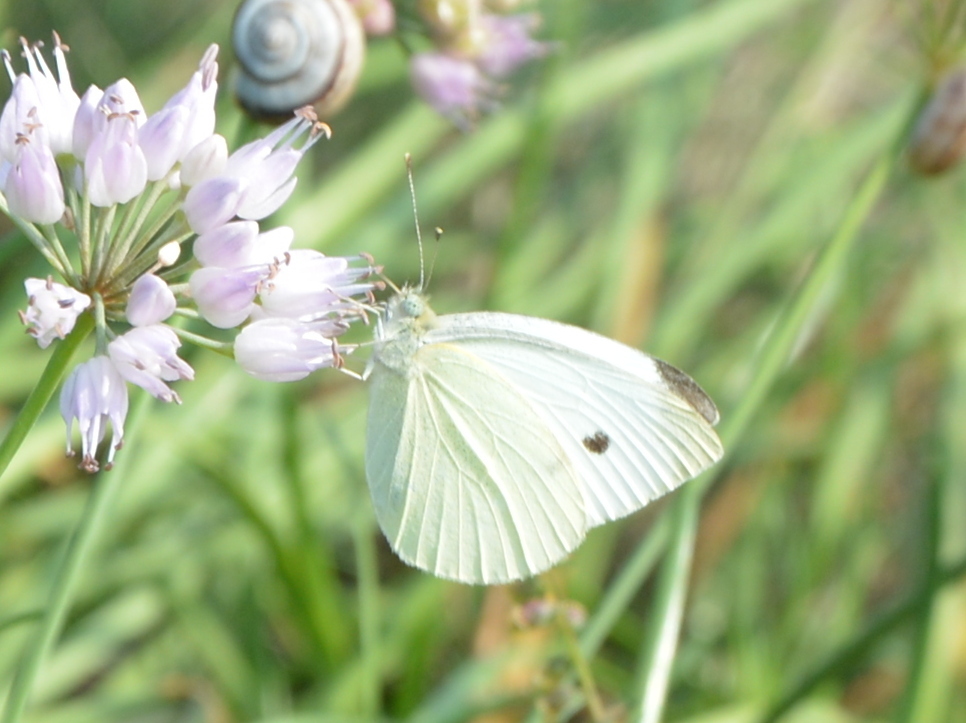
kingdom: Animalia
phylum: Arthropoda
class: Insecta
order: Lepidoptera
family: Pieridae
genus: Pieris
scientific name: Pieris rapae
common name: Small white
